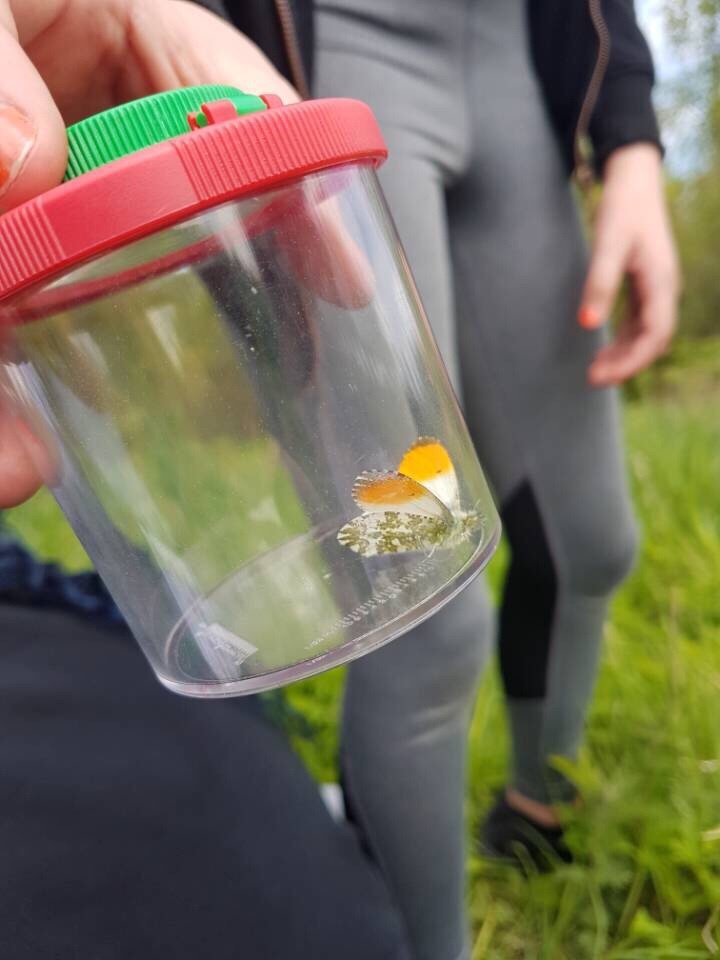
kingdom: Animalia
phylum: Arthropoda
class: Insecta
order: Lepidoptera
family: Pieridae
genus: Anthocharis
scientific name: Anthocharis cardamines
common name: Orange-tip
